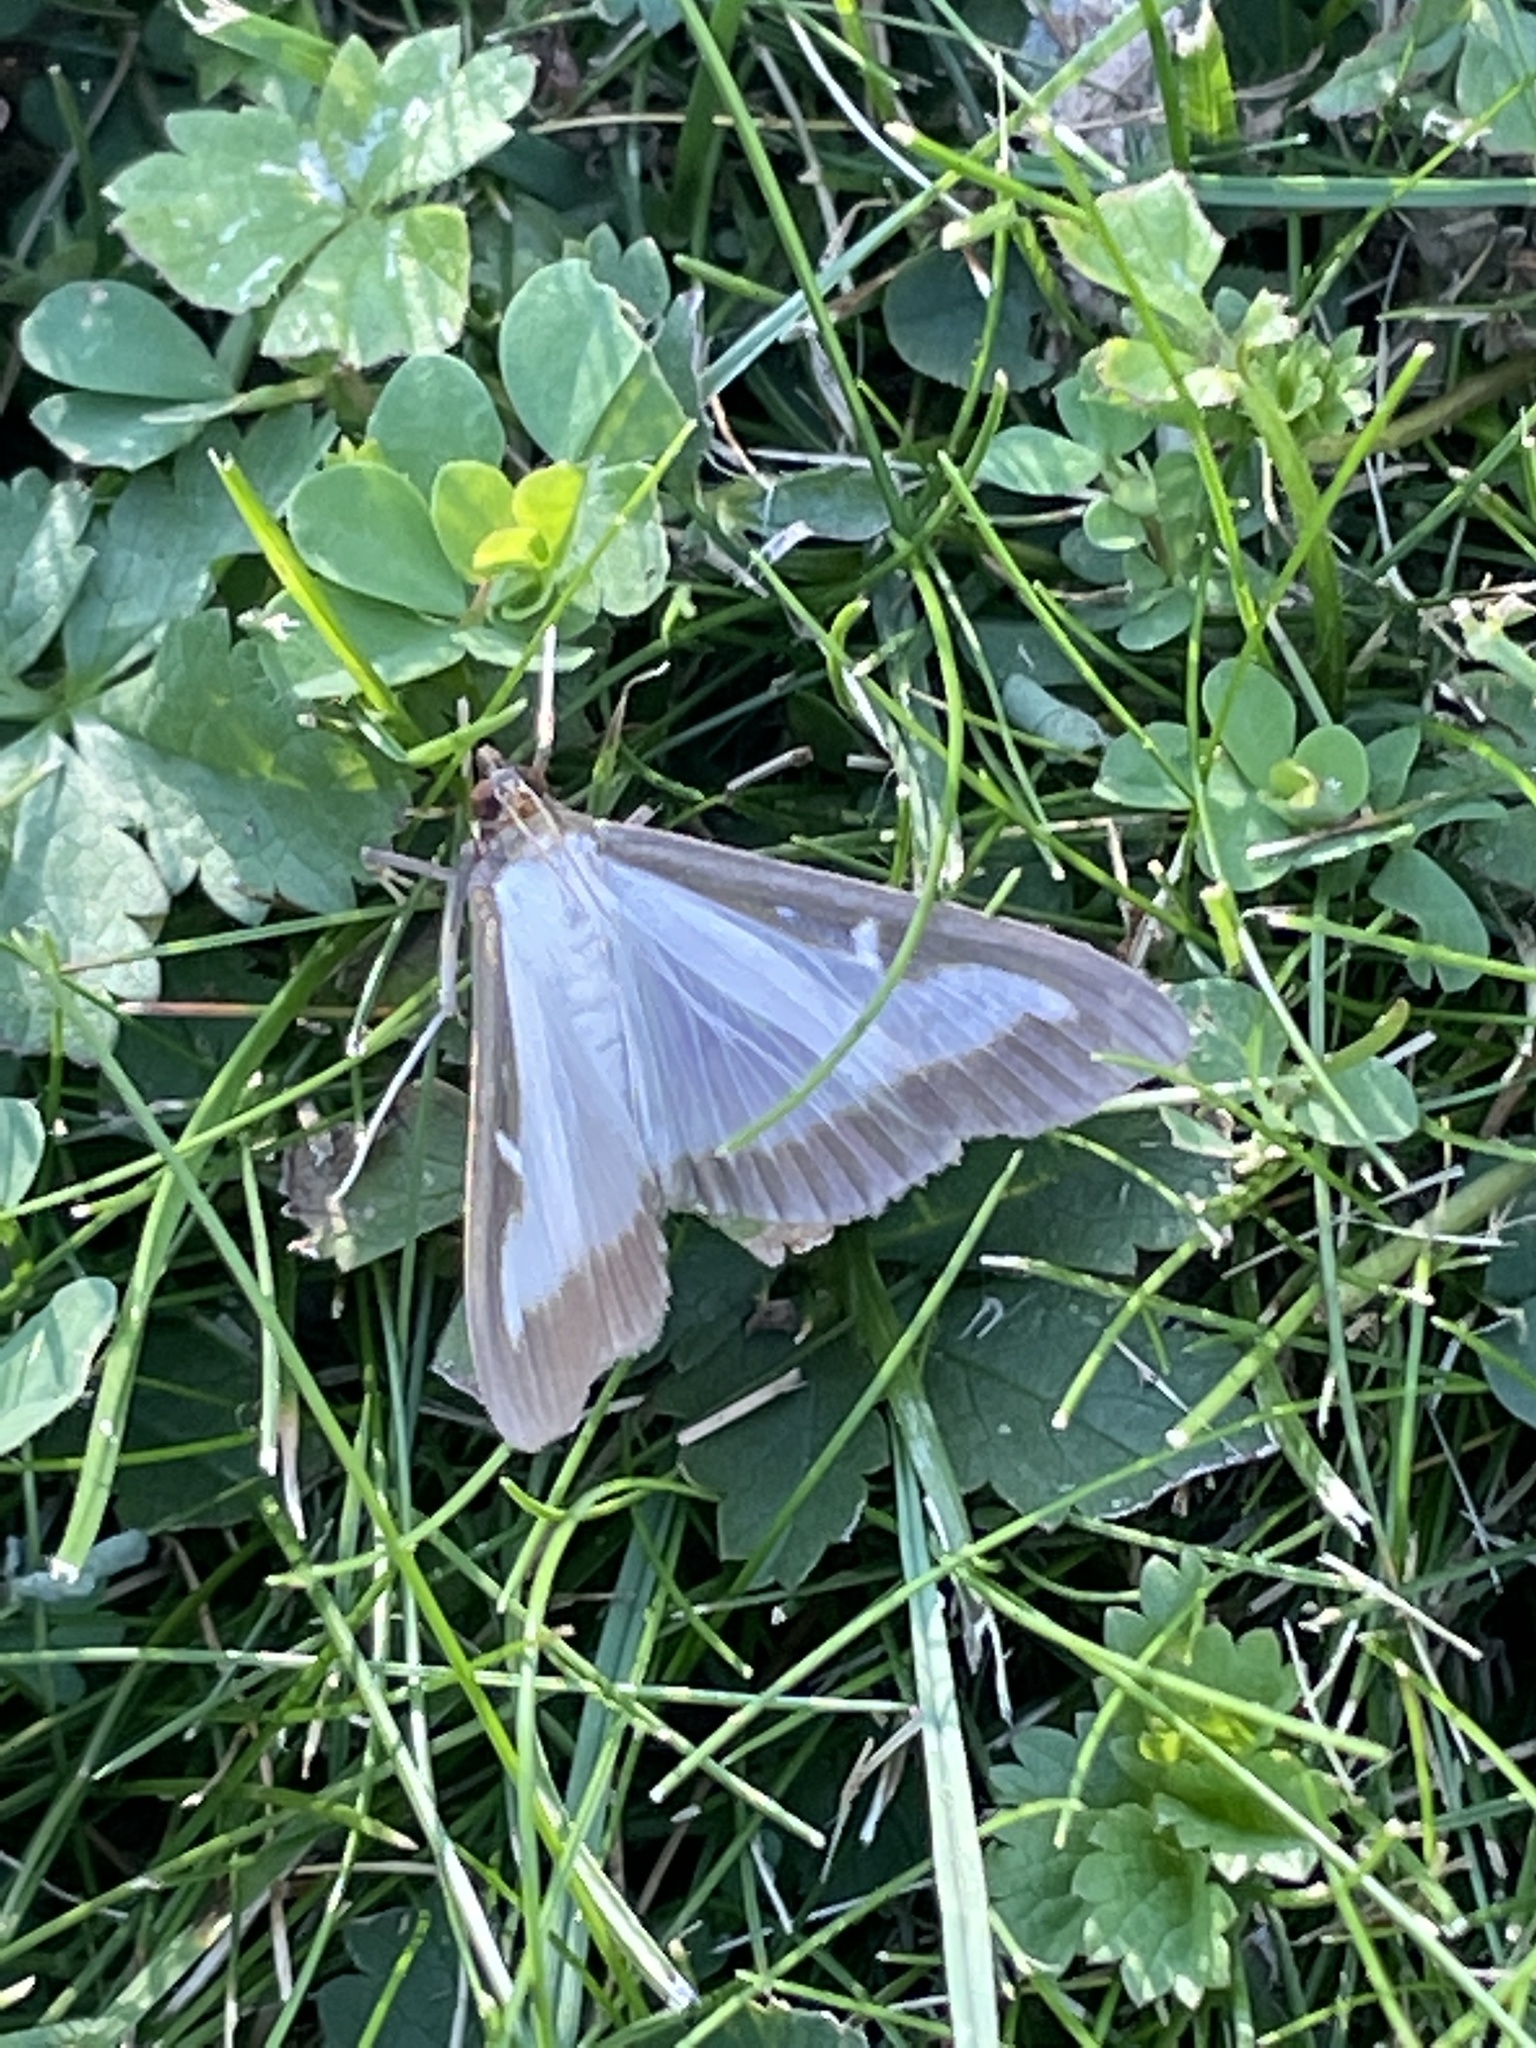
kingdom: Animalia
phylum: Arthropoda
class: Insecta
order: Lepidoptera
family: Crambidae
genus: Cydalima
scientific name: Cydalima perspectalis
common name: Box tree moth
